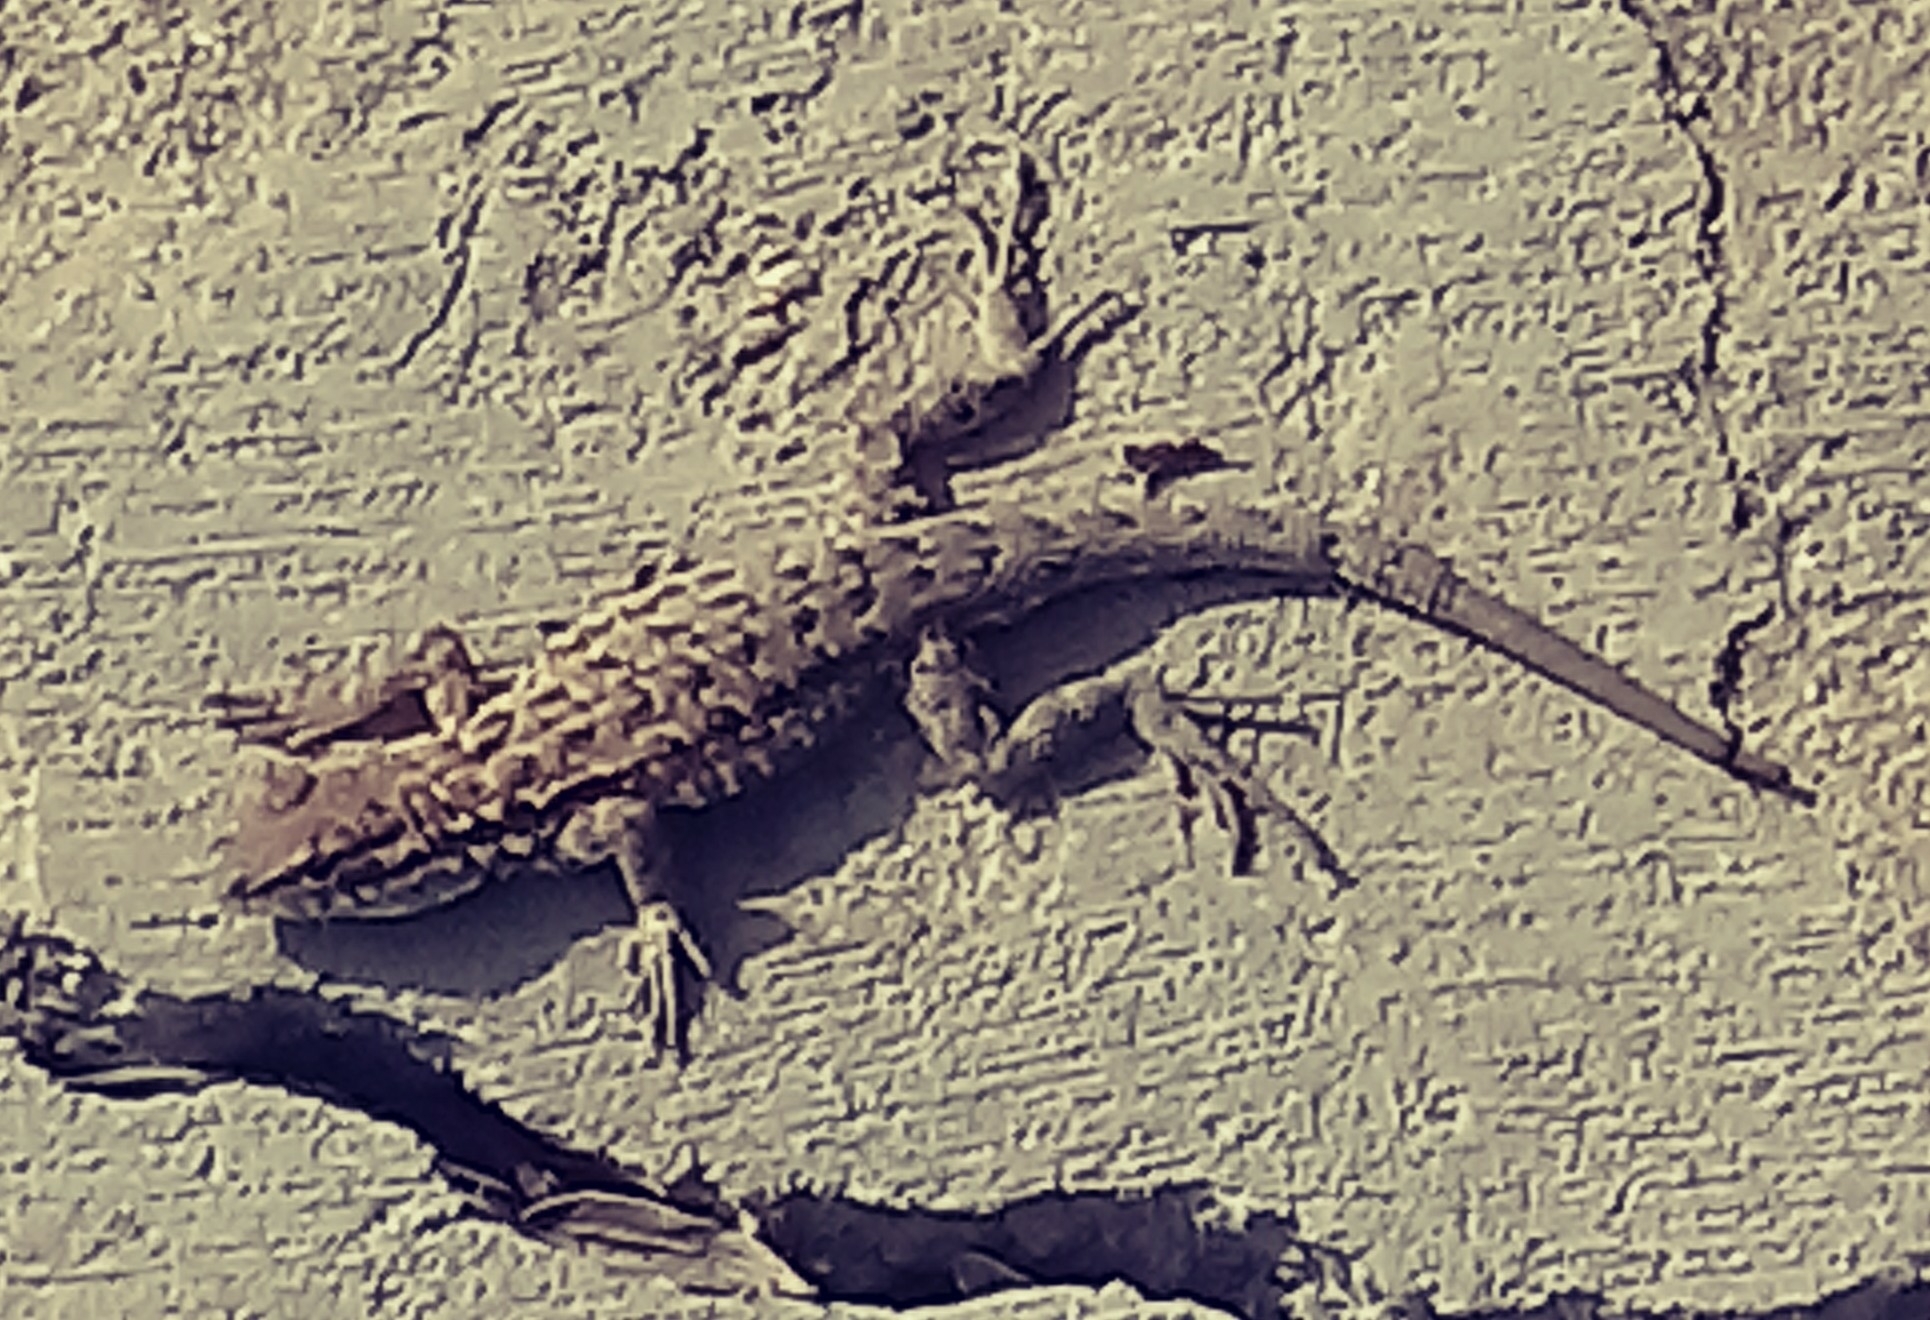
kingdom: Animalia
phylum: Chordata
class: Squamata
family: Phrynosomatidae
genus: Uta
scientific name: Uta stansburiana
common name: Side-blotched lizard
